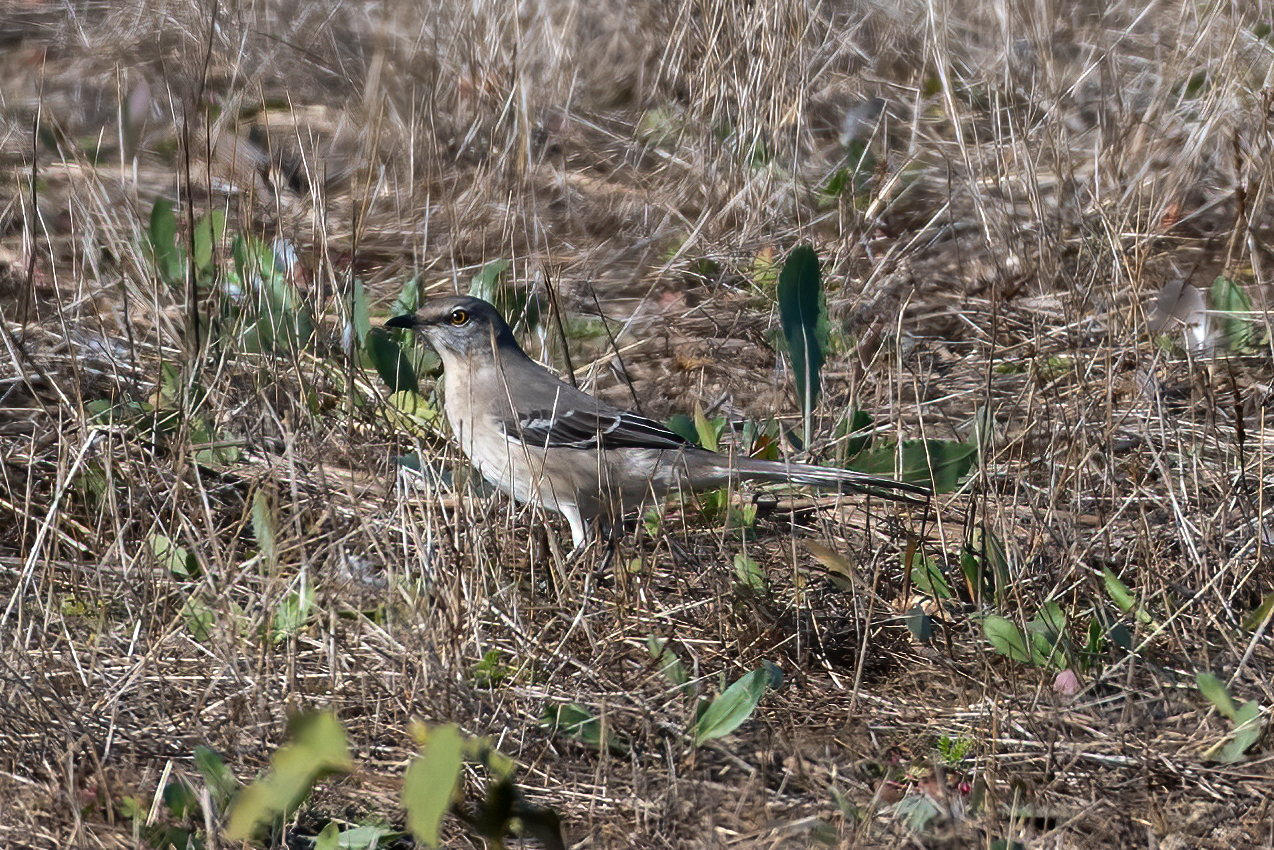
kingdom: Animalia
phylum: Chordata
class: Aves
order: Passeriformes
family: Mimidae
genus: Mimus
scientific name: Mimus polyglottos
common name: Northern mockingbird
